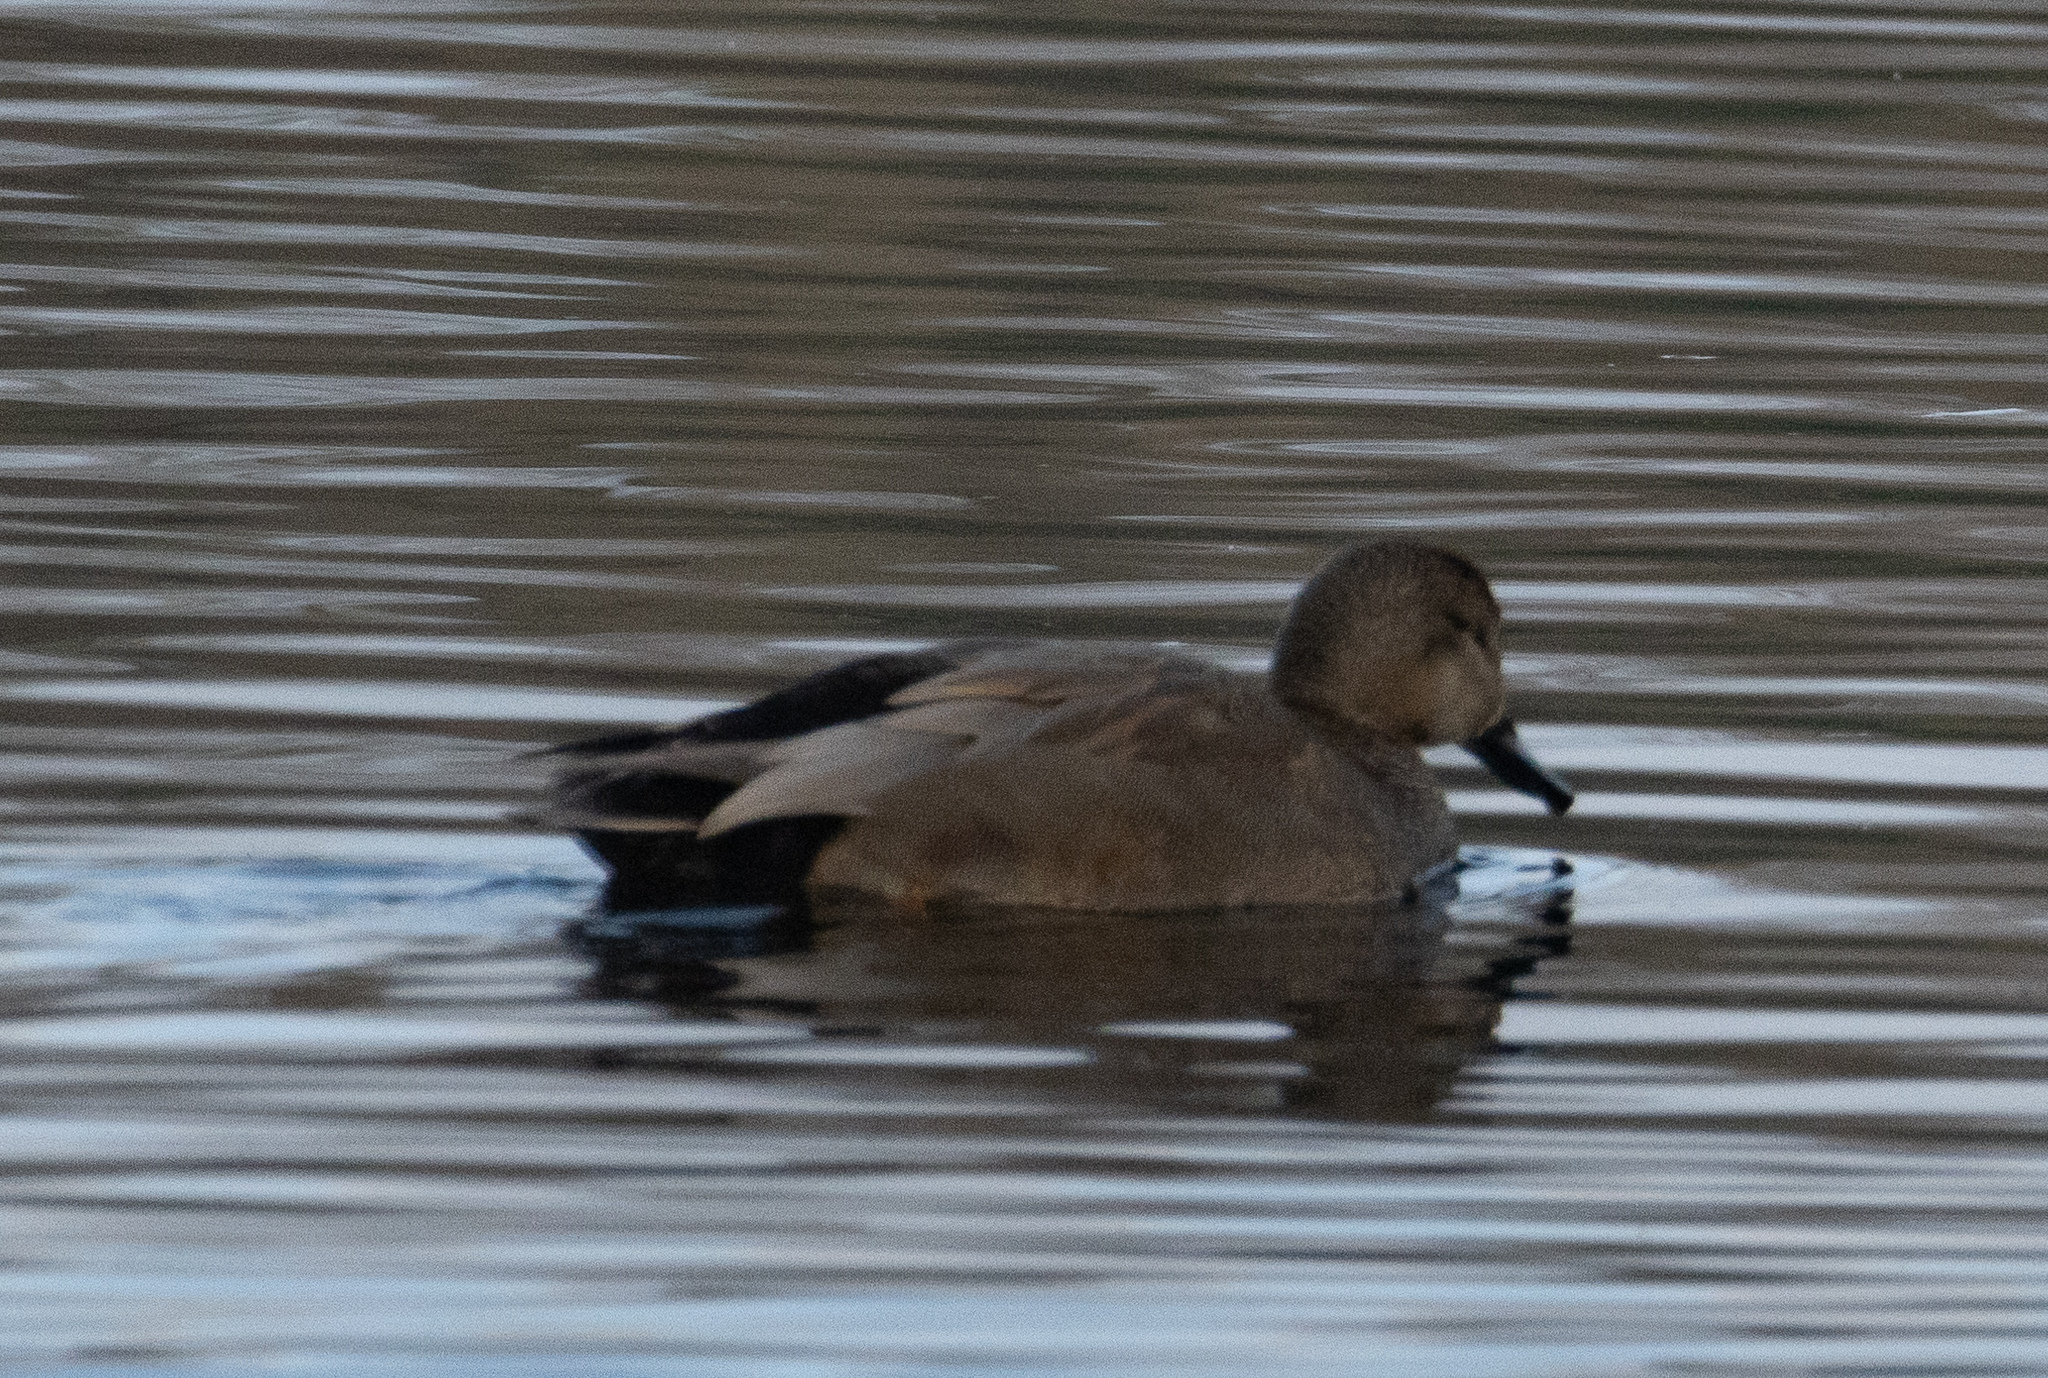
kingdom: Animalia
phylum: Chordata
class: Aves
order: Anseriformes
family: Anatidae
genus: Mareca
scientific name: Mareca strepera
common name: Gadwall
